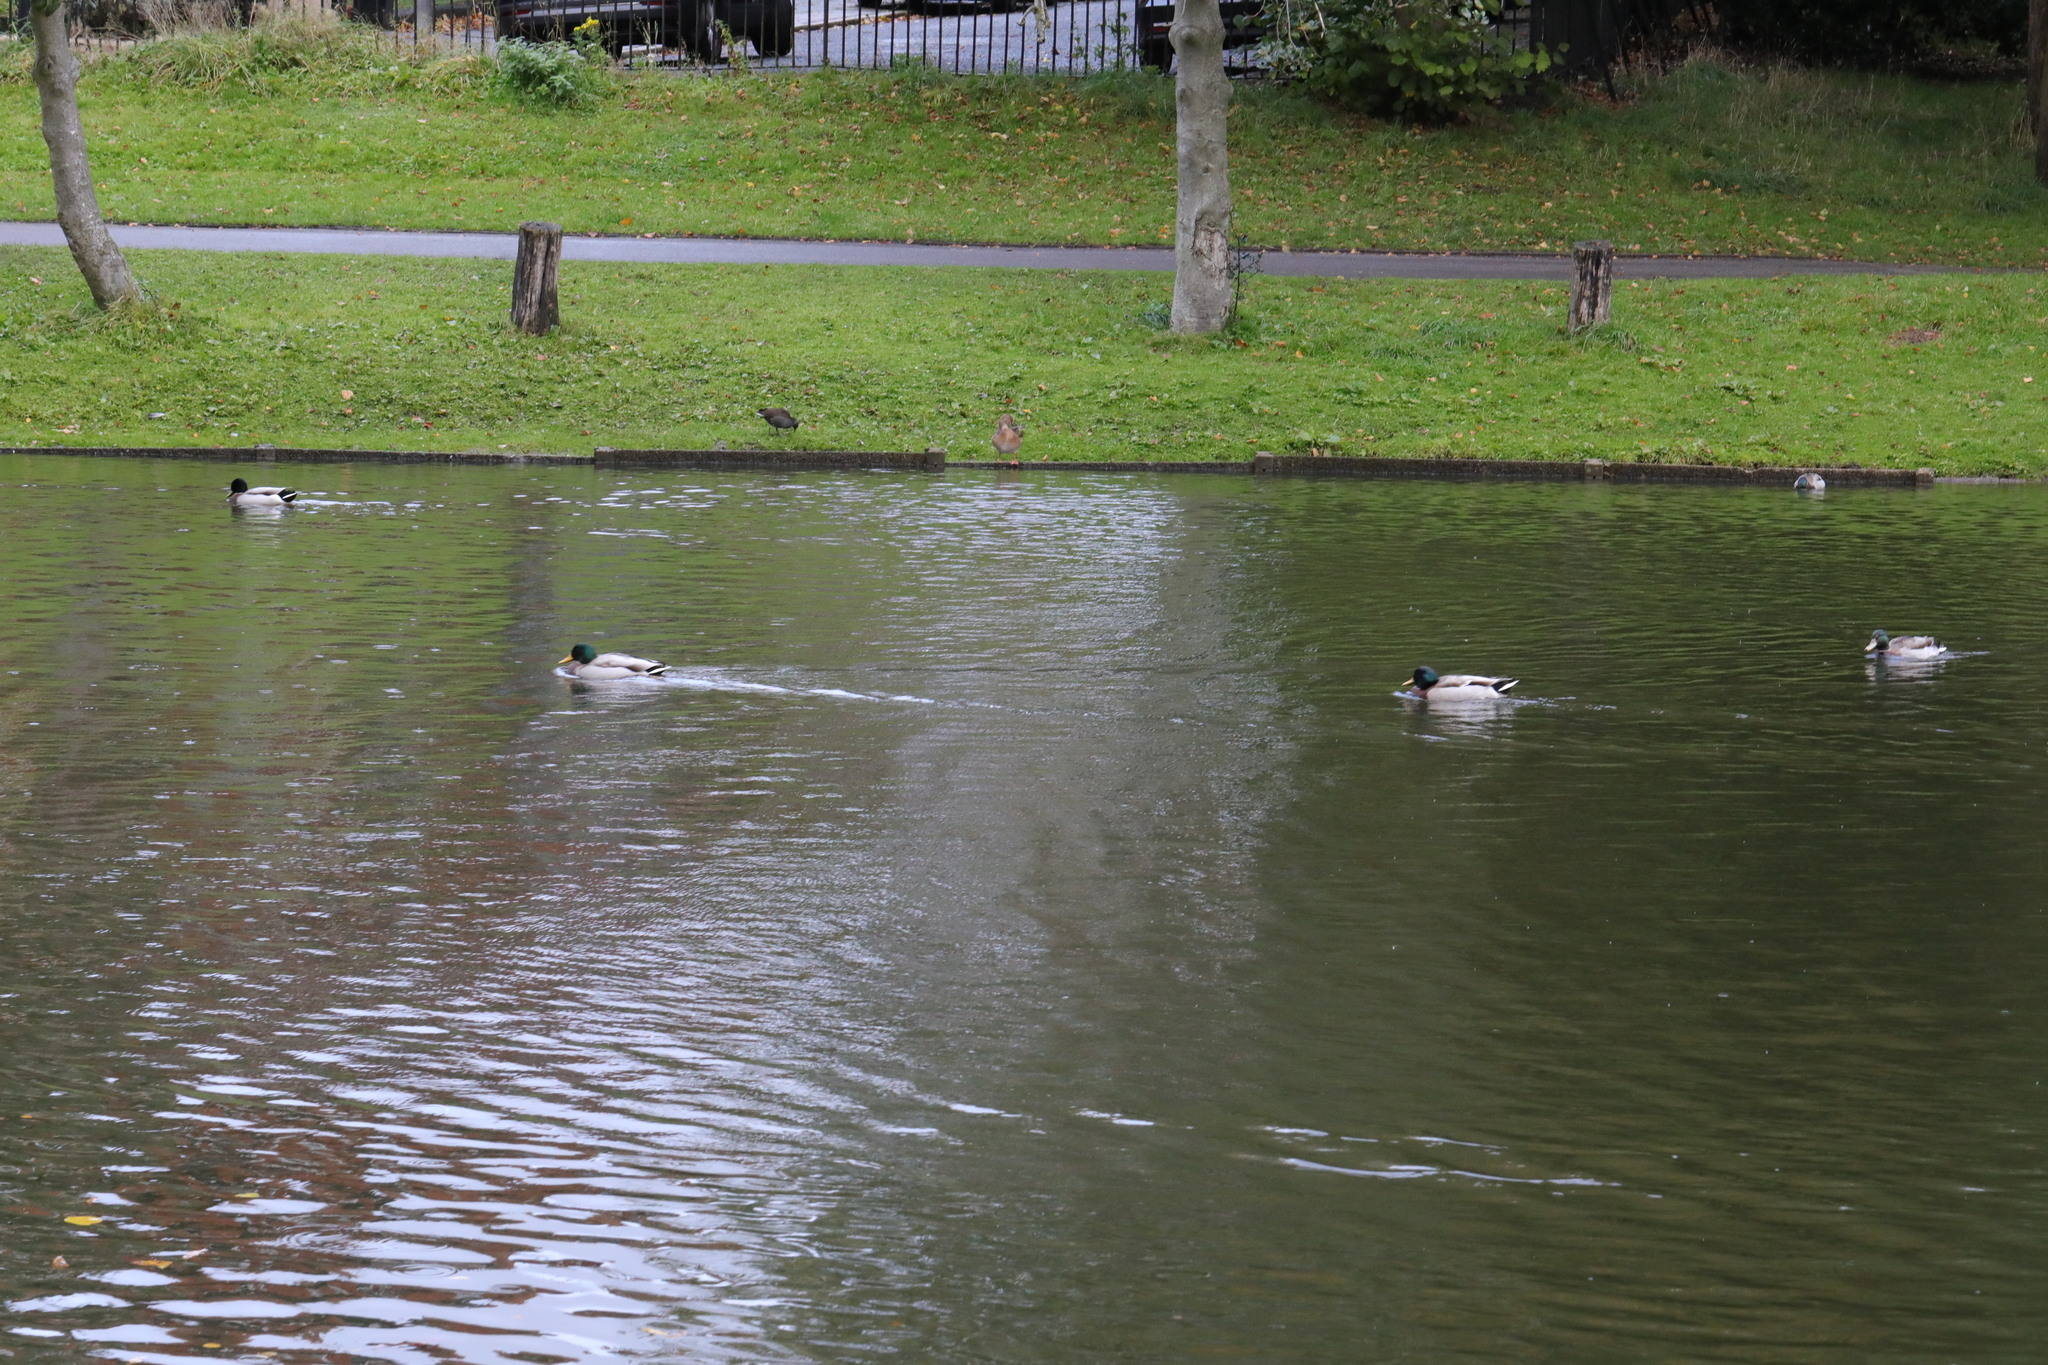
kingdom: Animalia
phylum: Chordata
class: Aves
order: Anseriformes
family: Anatidae
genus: Anas
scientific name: Anas platyrhynchos
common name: Mallard
